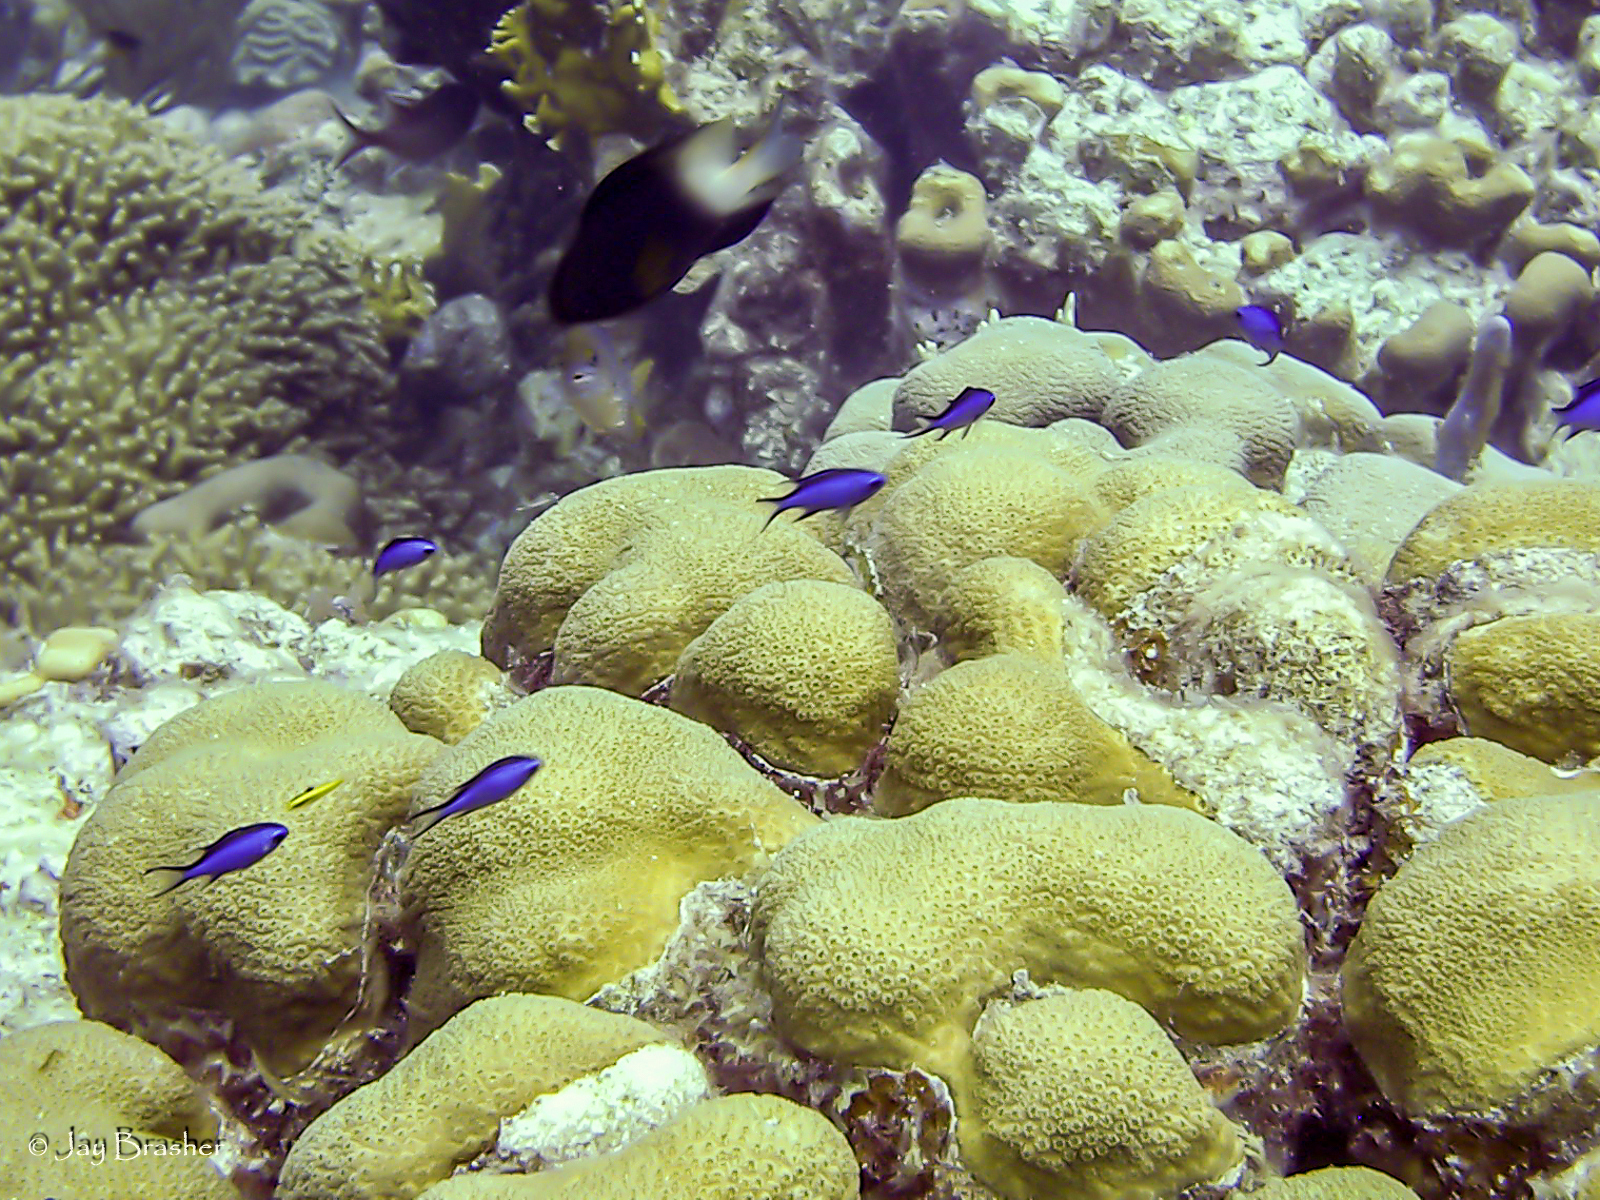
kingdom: Animalia
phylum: Chordata
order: Perciformes
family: Pomacentridae
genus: Stegastes
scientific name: Stegastes partitus
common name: Bicolor damselfish
